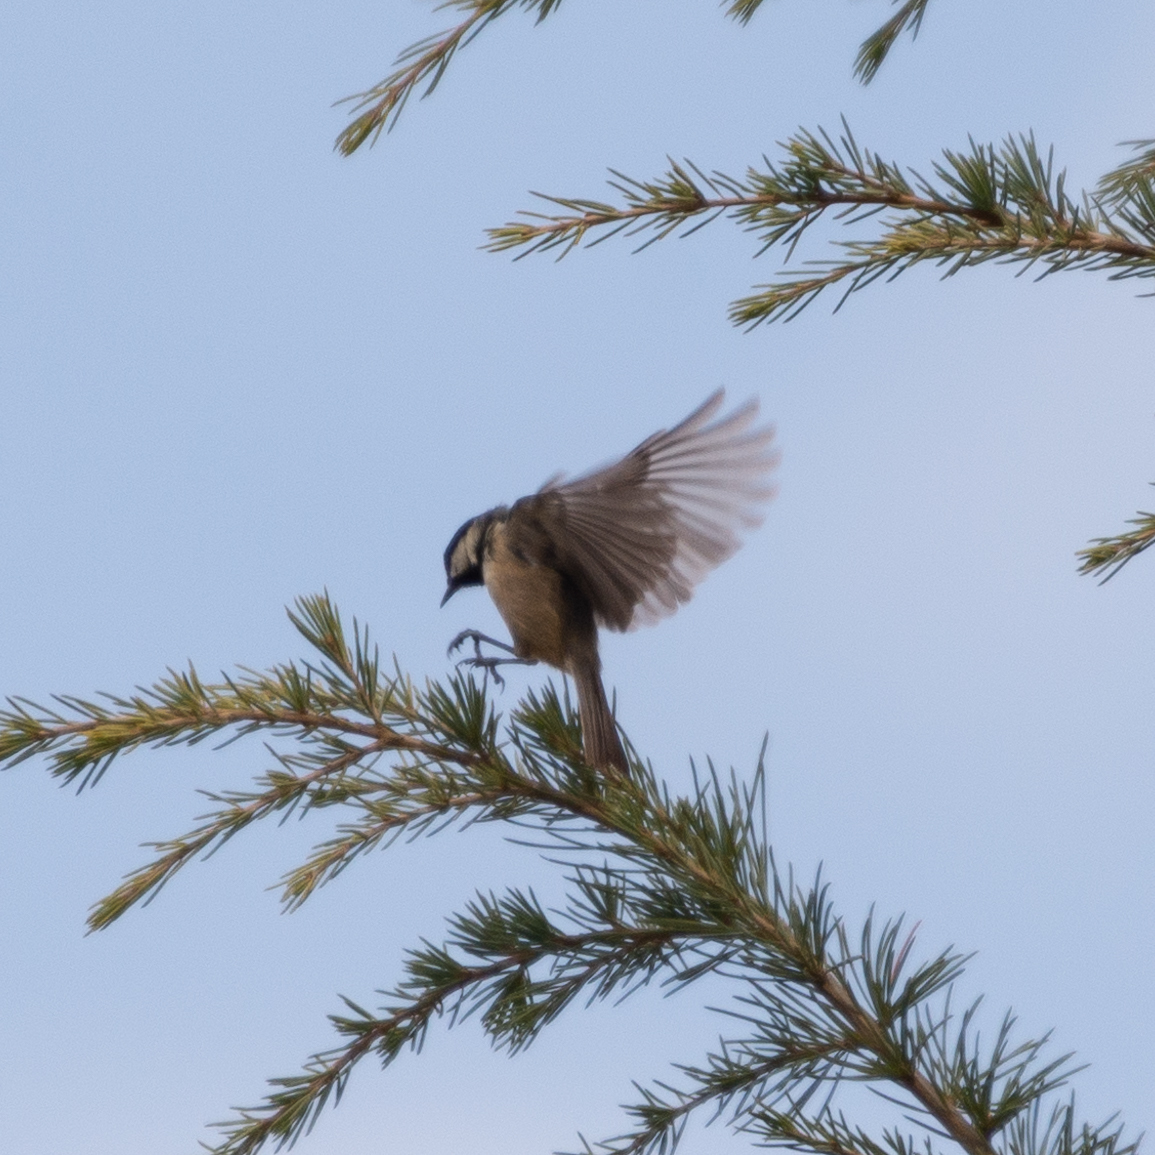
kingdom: Animalia
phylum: Chordata
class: Aves
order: Passeriformes
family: Paridae
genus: Periparus
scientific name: Periparus ater
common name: Coal tit
